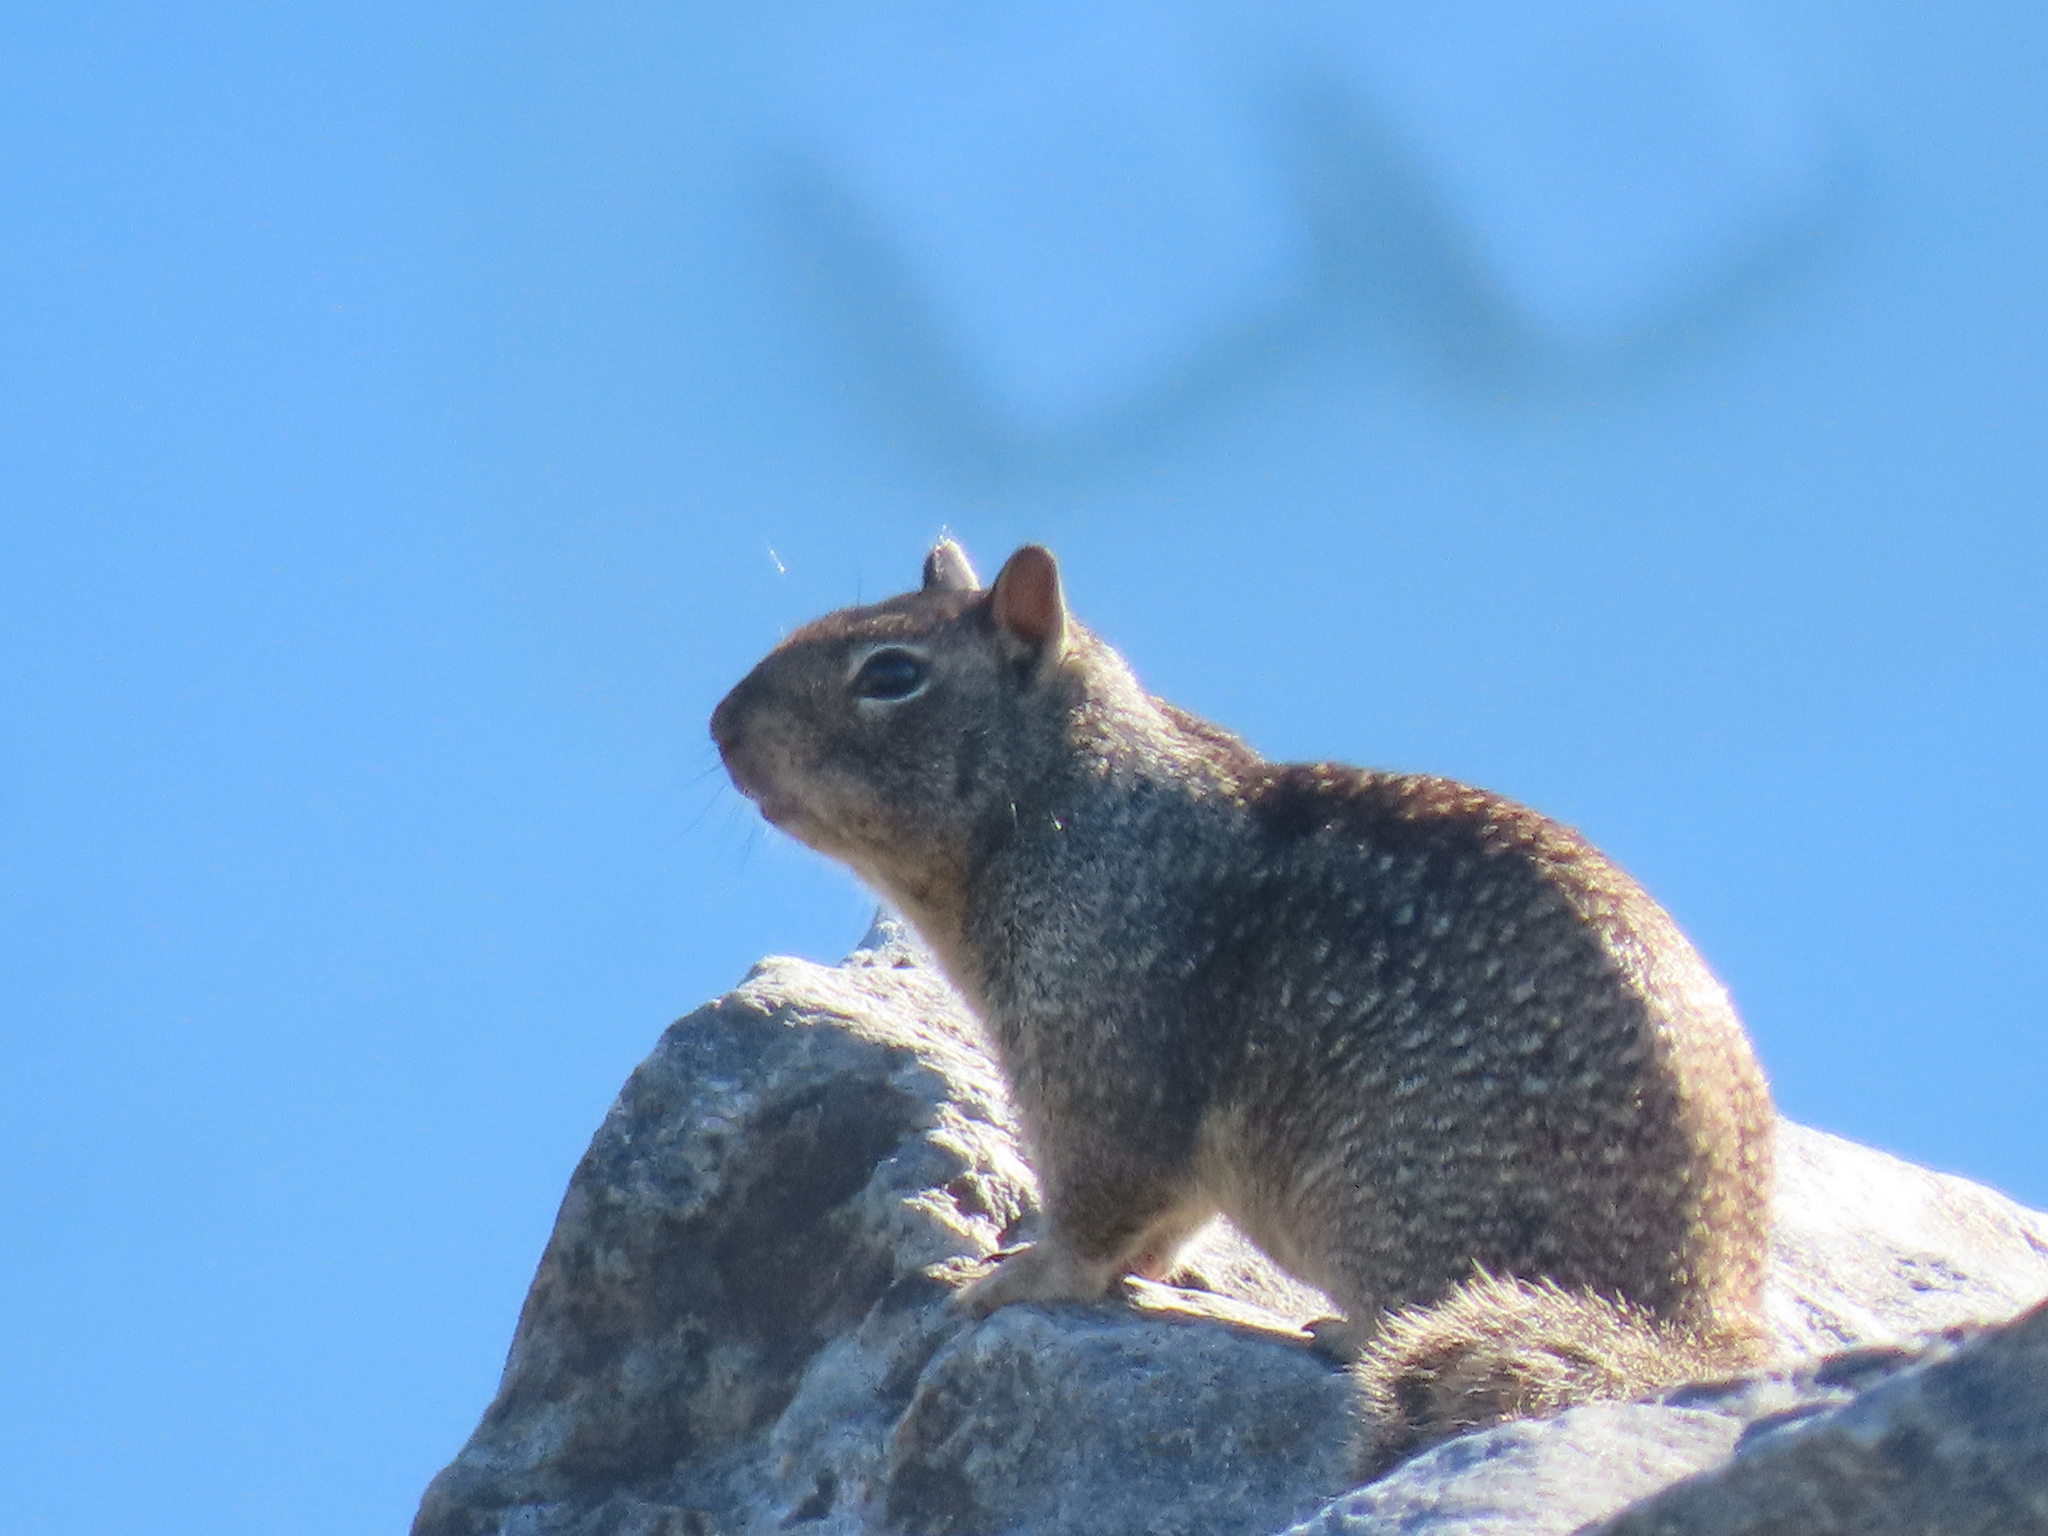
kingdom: Animalia
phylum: Chordata
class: Mammalia
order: Rodentia
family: Sciuridae
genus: Otospermophilus
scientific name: Otospermophilus beecheyi
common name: California ground squirrel
